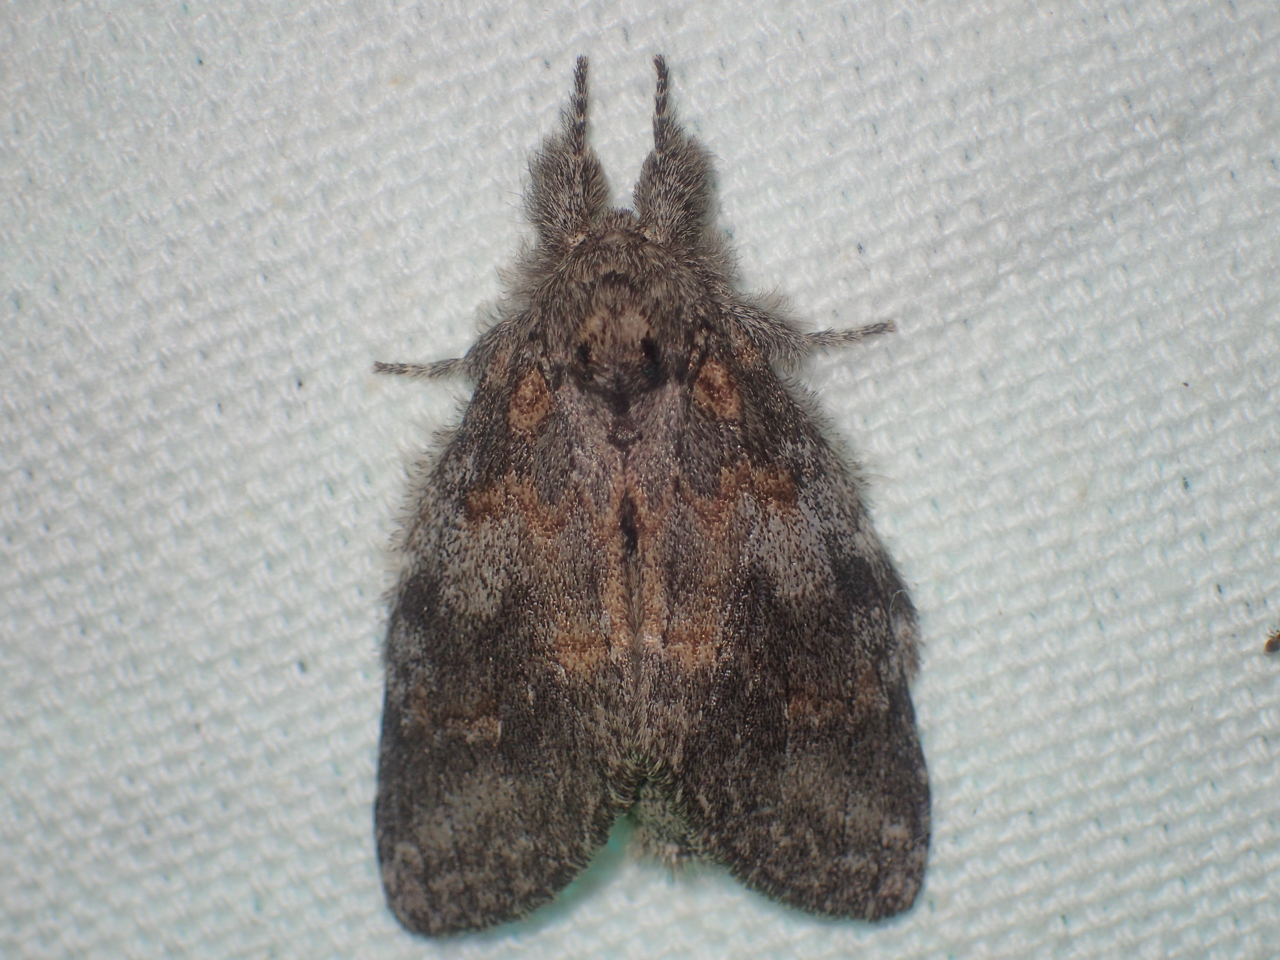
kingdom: Animalia
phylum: Arthropoda
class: Insecta
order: Lepidoptera
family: Notodontidae
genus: Peridea
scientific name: Peridea angulosa
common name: Angulose prominent
